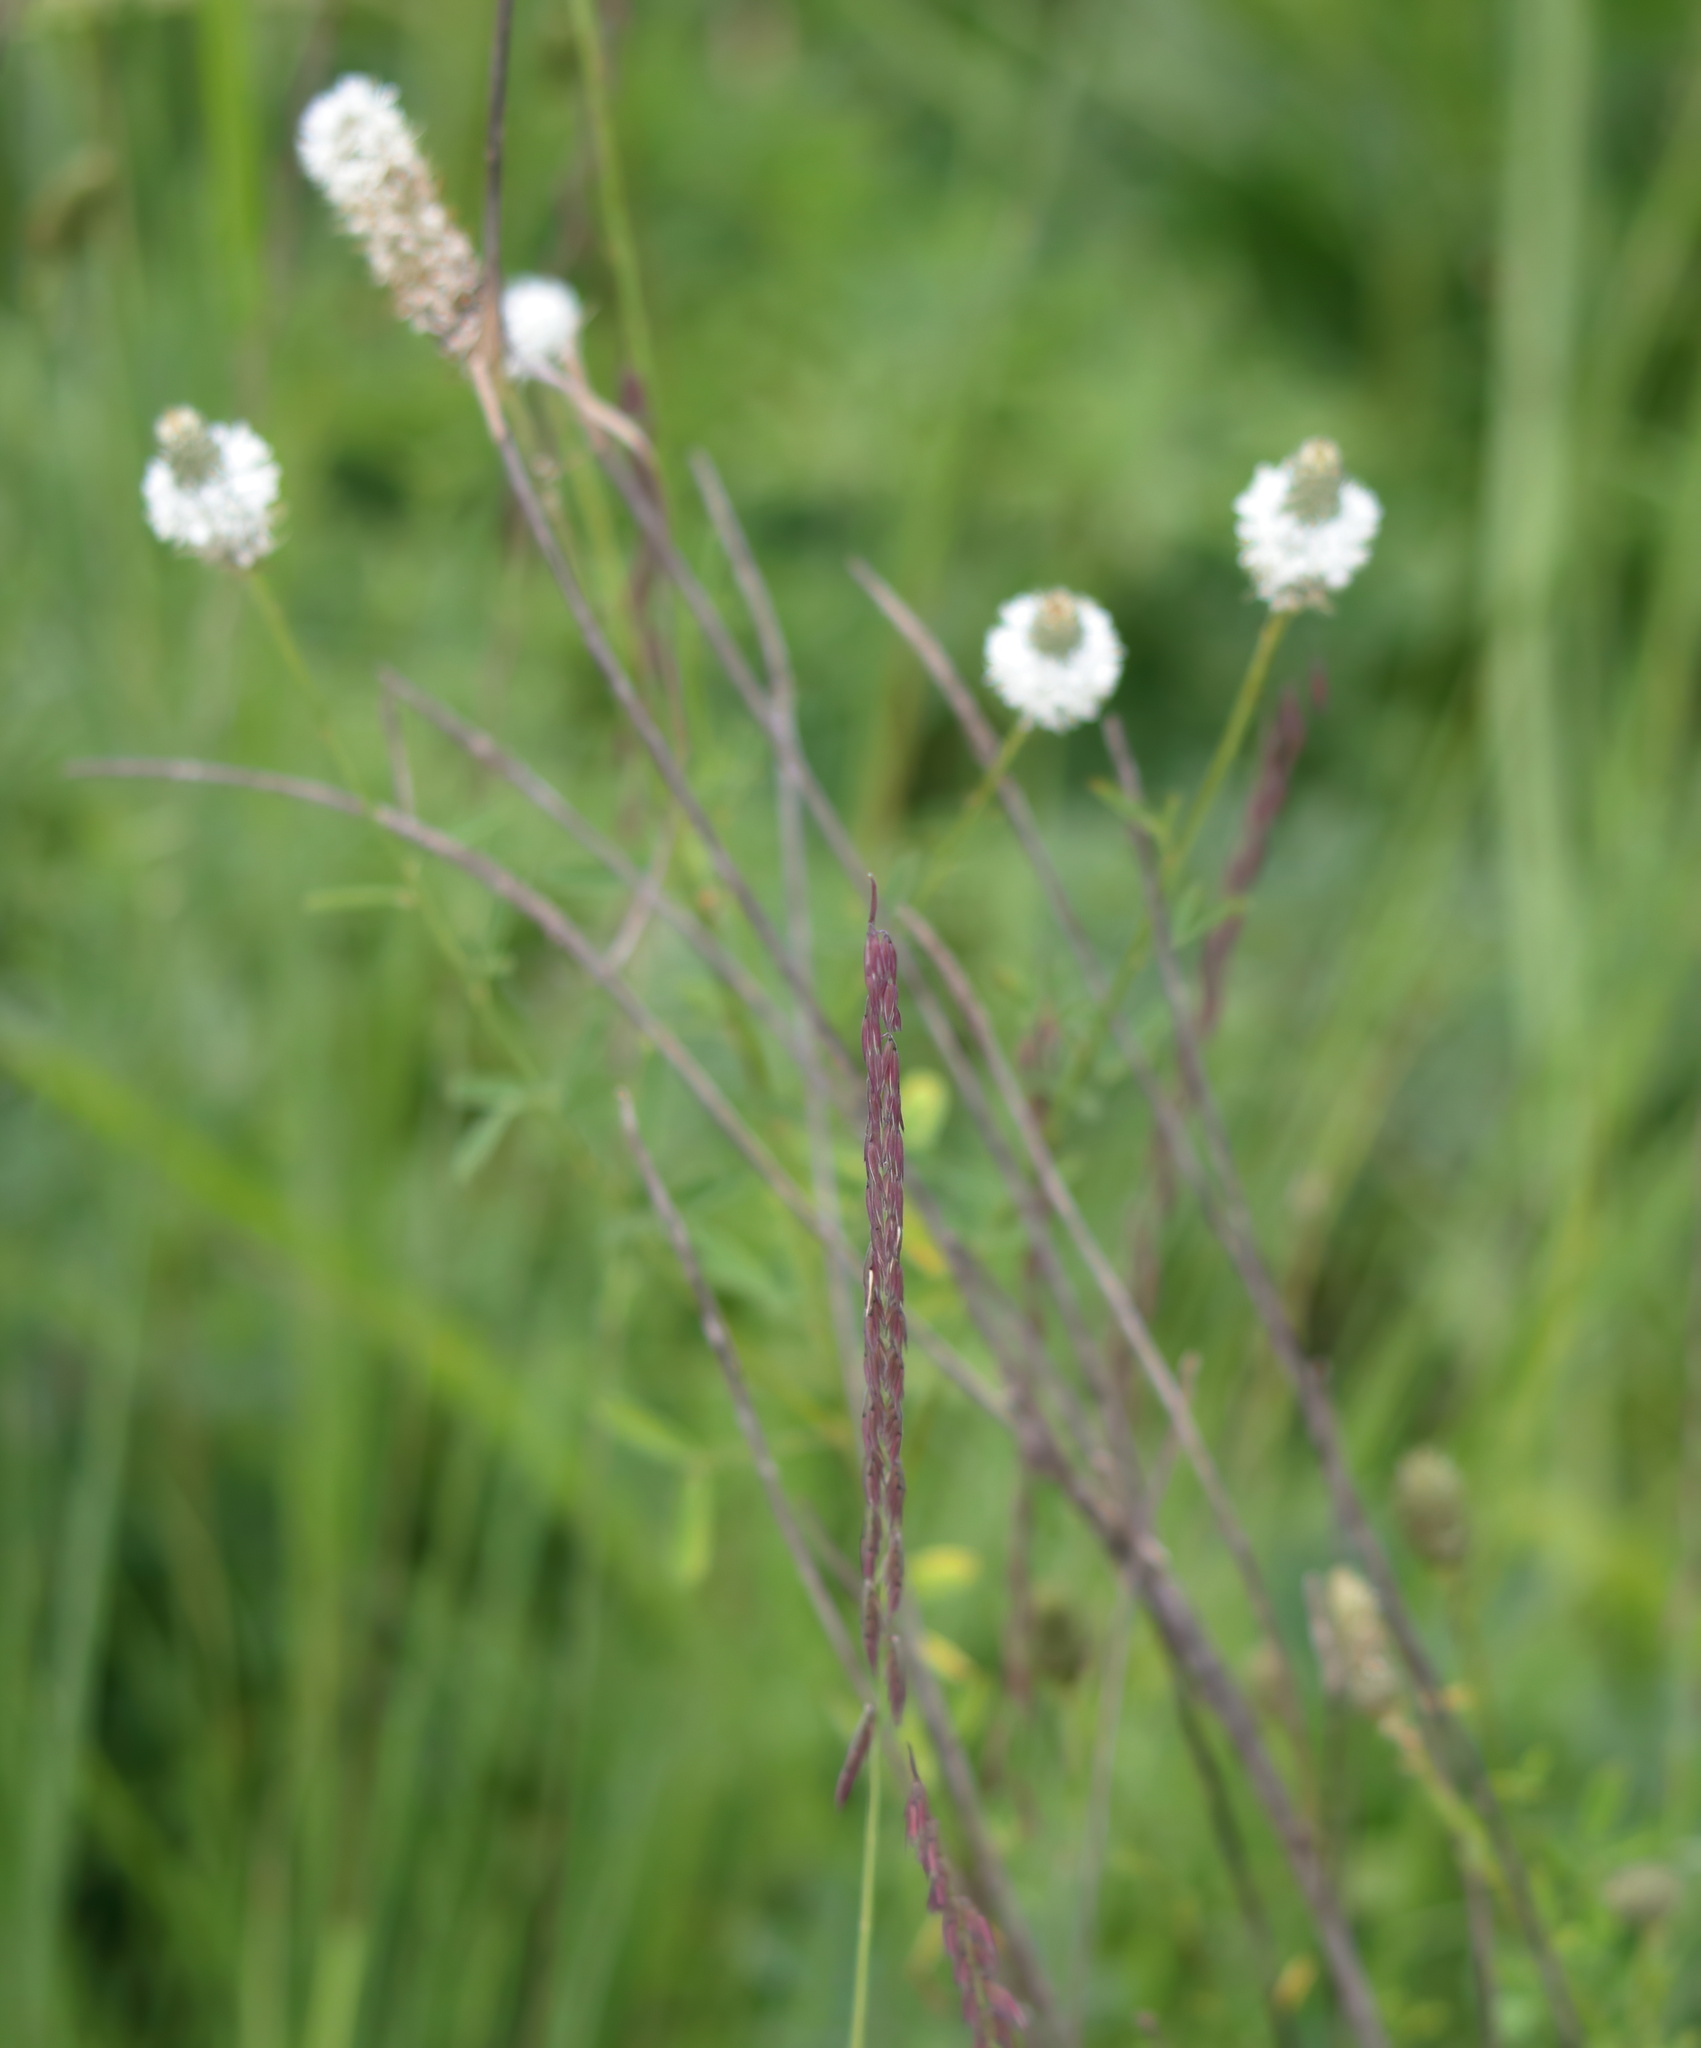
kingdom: Plantae
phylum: Tracheophyta
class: Magnoliopsida
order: Fabales
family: Fabaceae
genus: Dalea
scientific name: Dalea candida
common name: White prairie-clover
